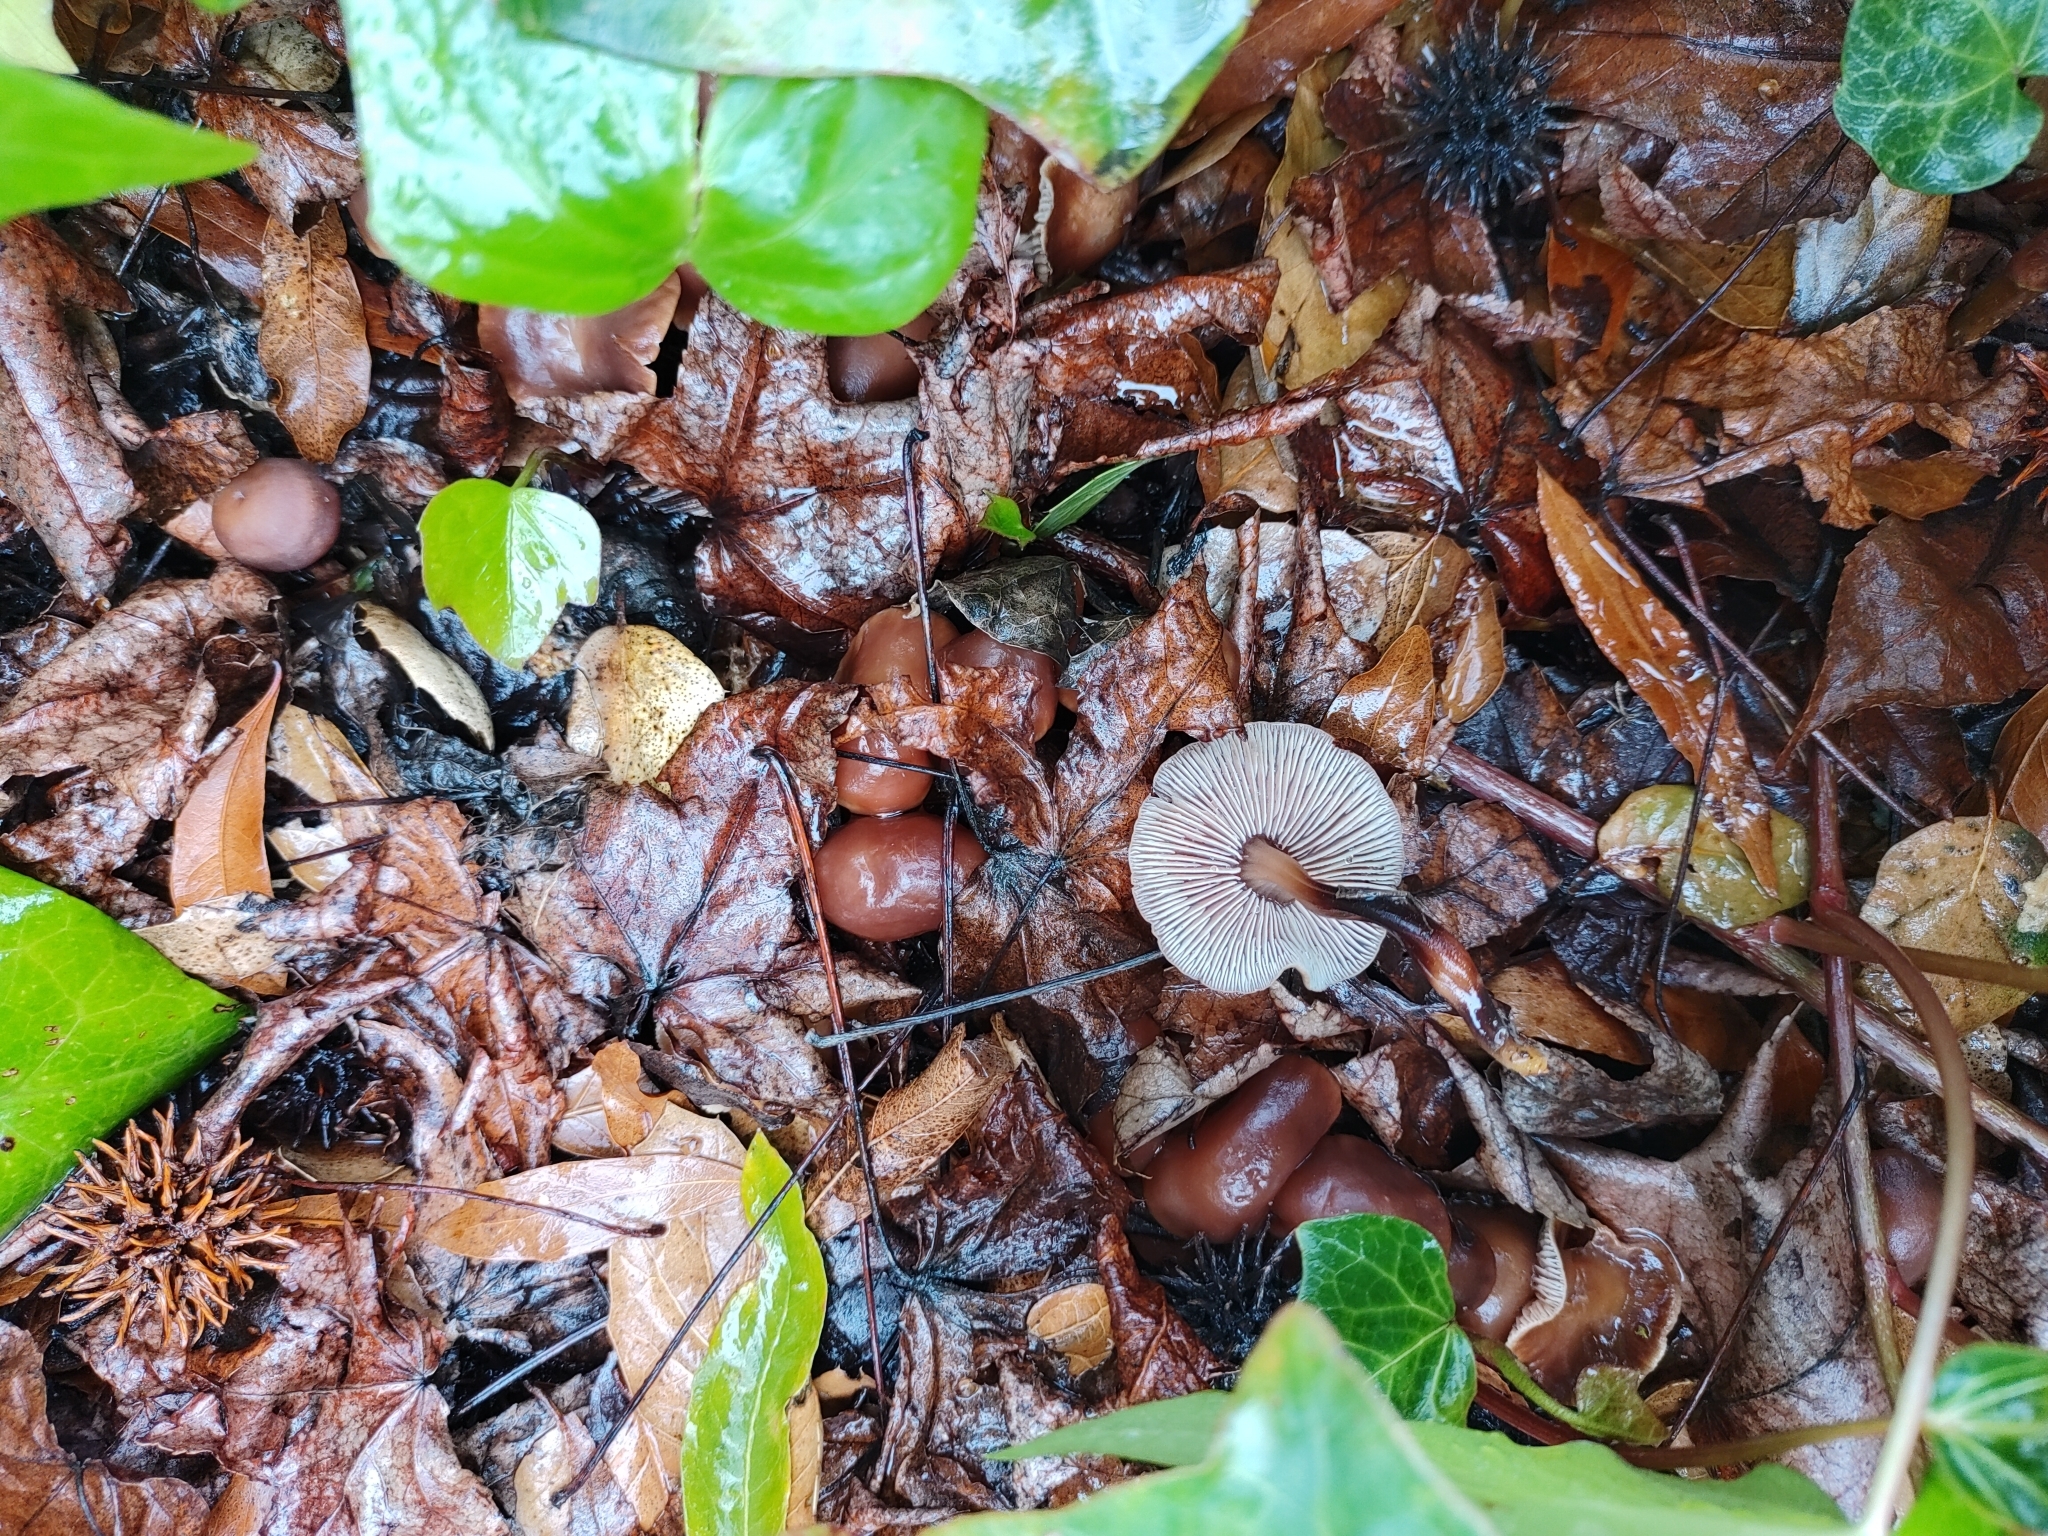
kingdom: Fungi
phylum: Basidiomycota
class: Agaricomycetes
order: Agaricales
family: Omphalotaceae
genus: Gymnopus
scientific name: Gymnopus brassicolens
